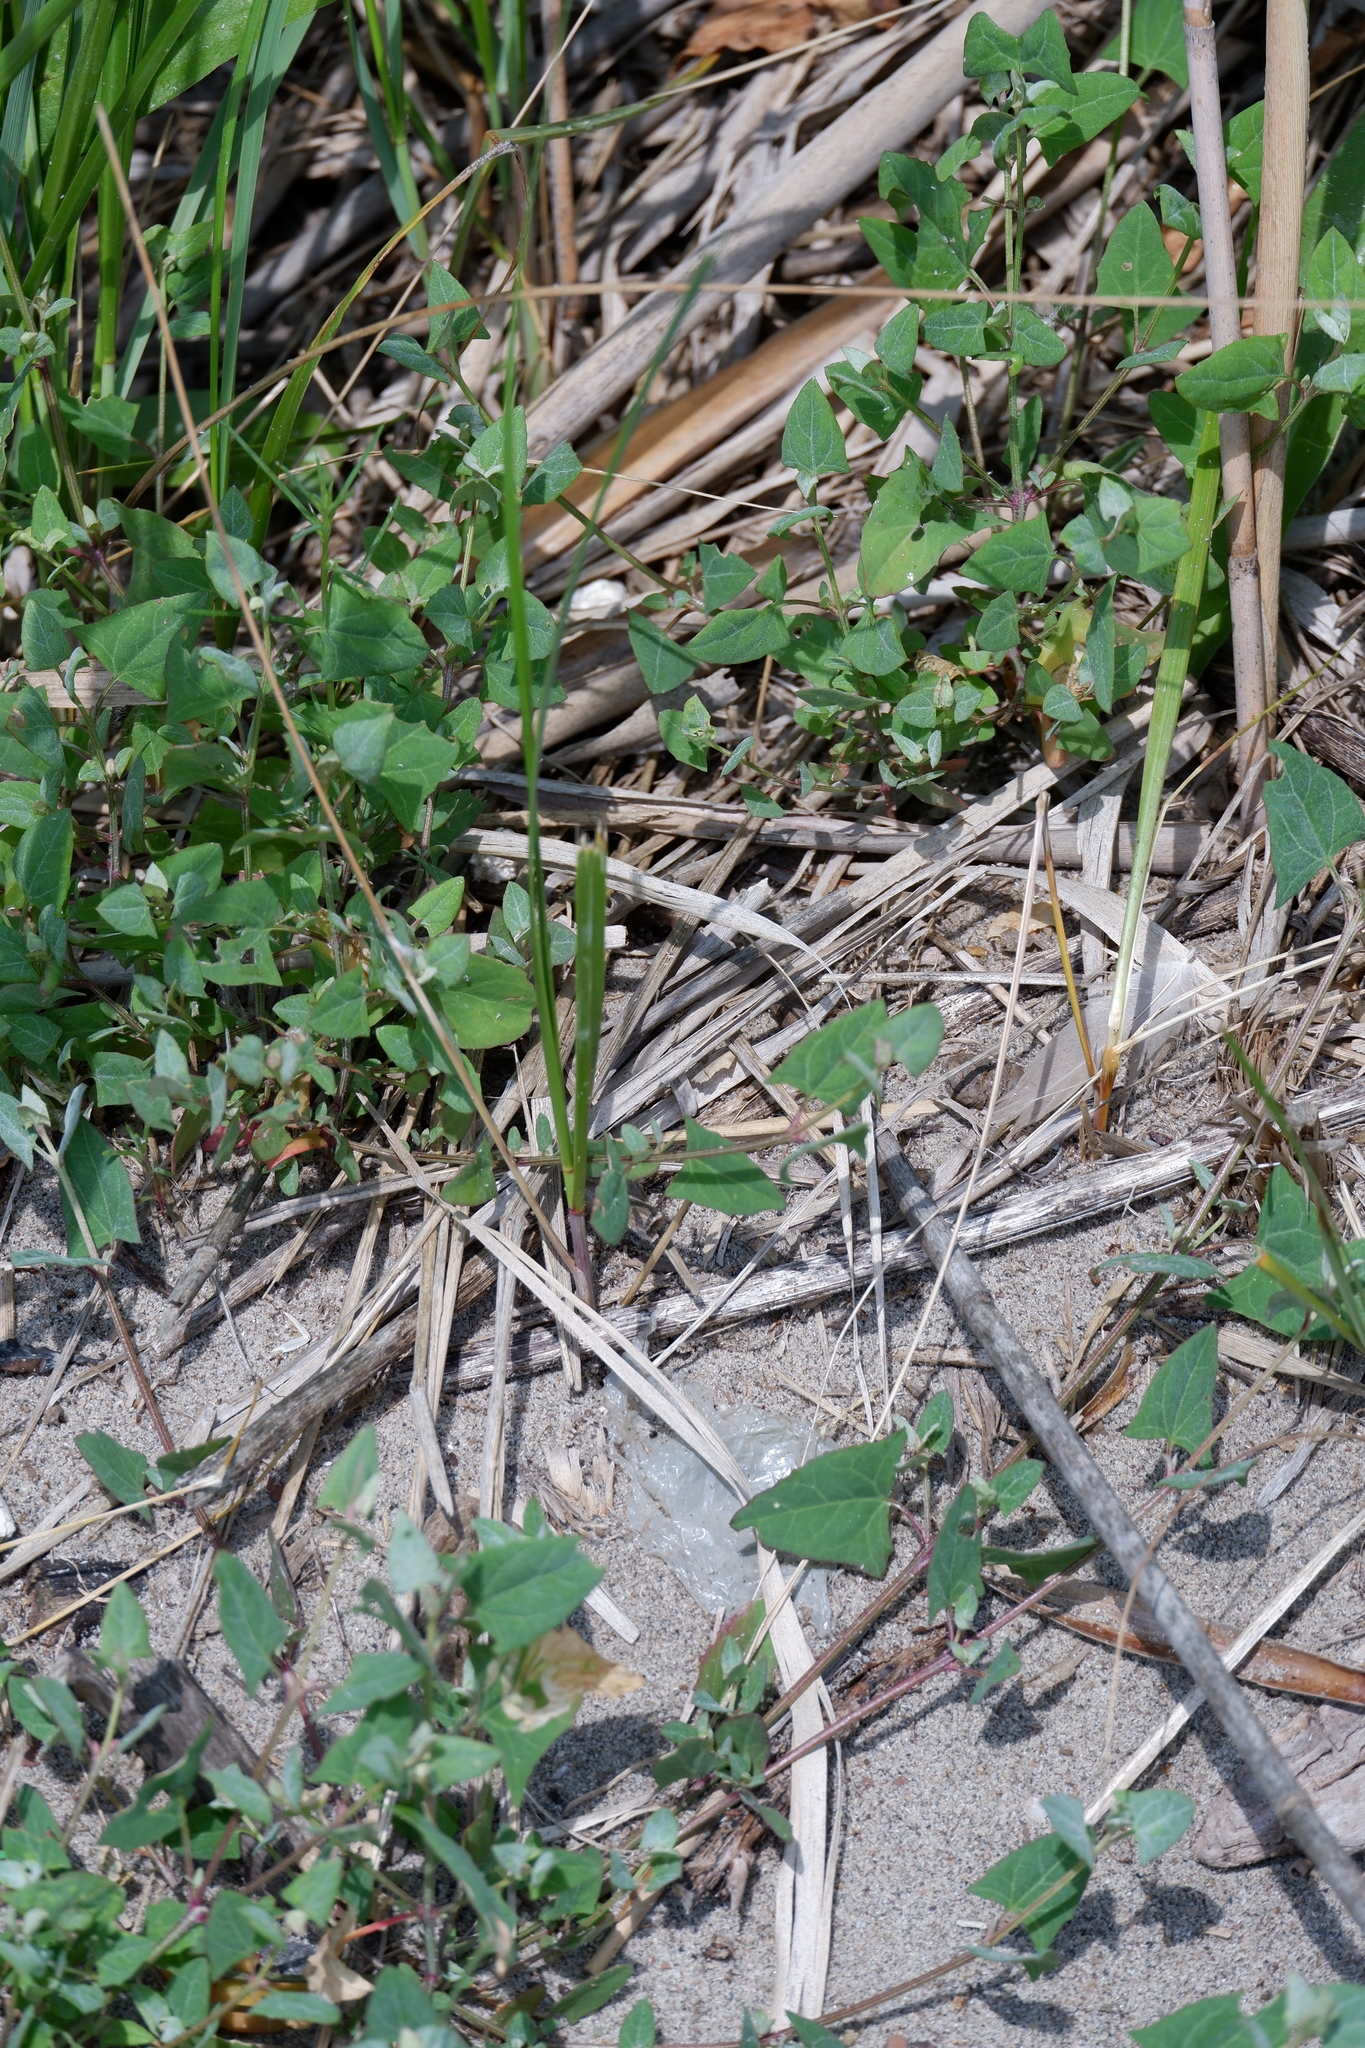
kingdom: Plantae
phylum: Tracheophyta
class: Magnoliopsida
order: Caryophyllales
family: Amaranthaceae
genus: Atriplex
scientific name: Atriplex prostrata
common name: Spear-leaved orache
